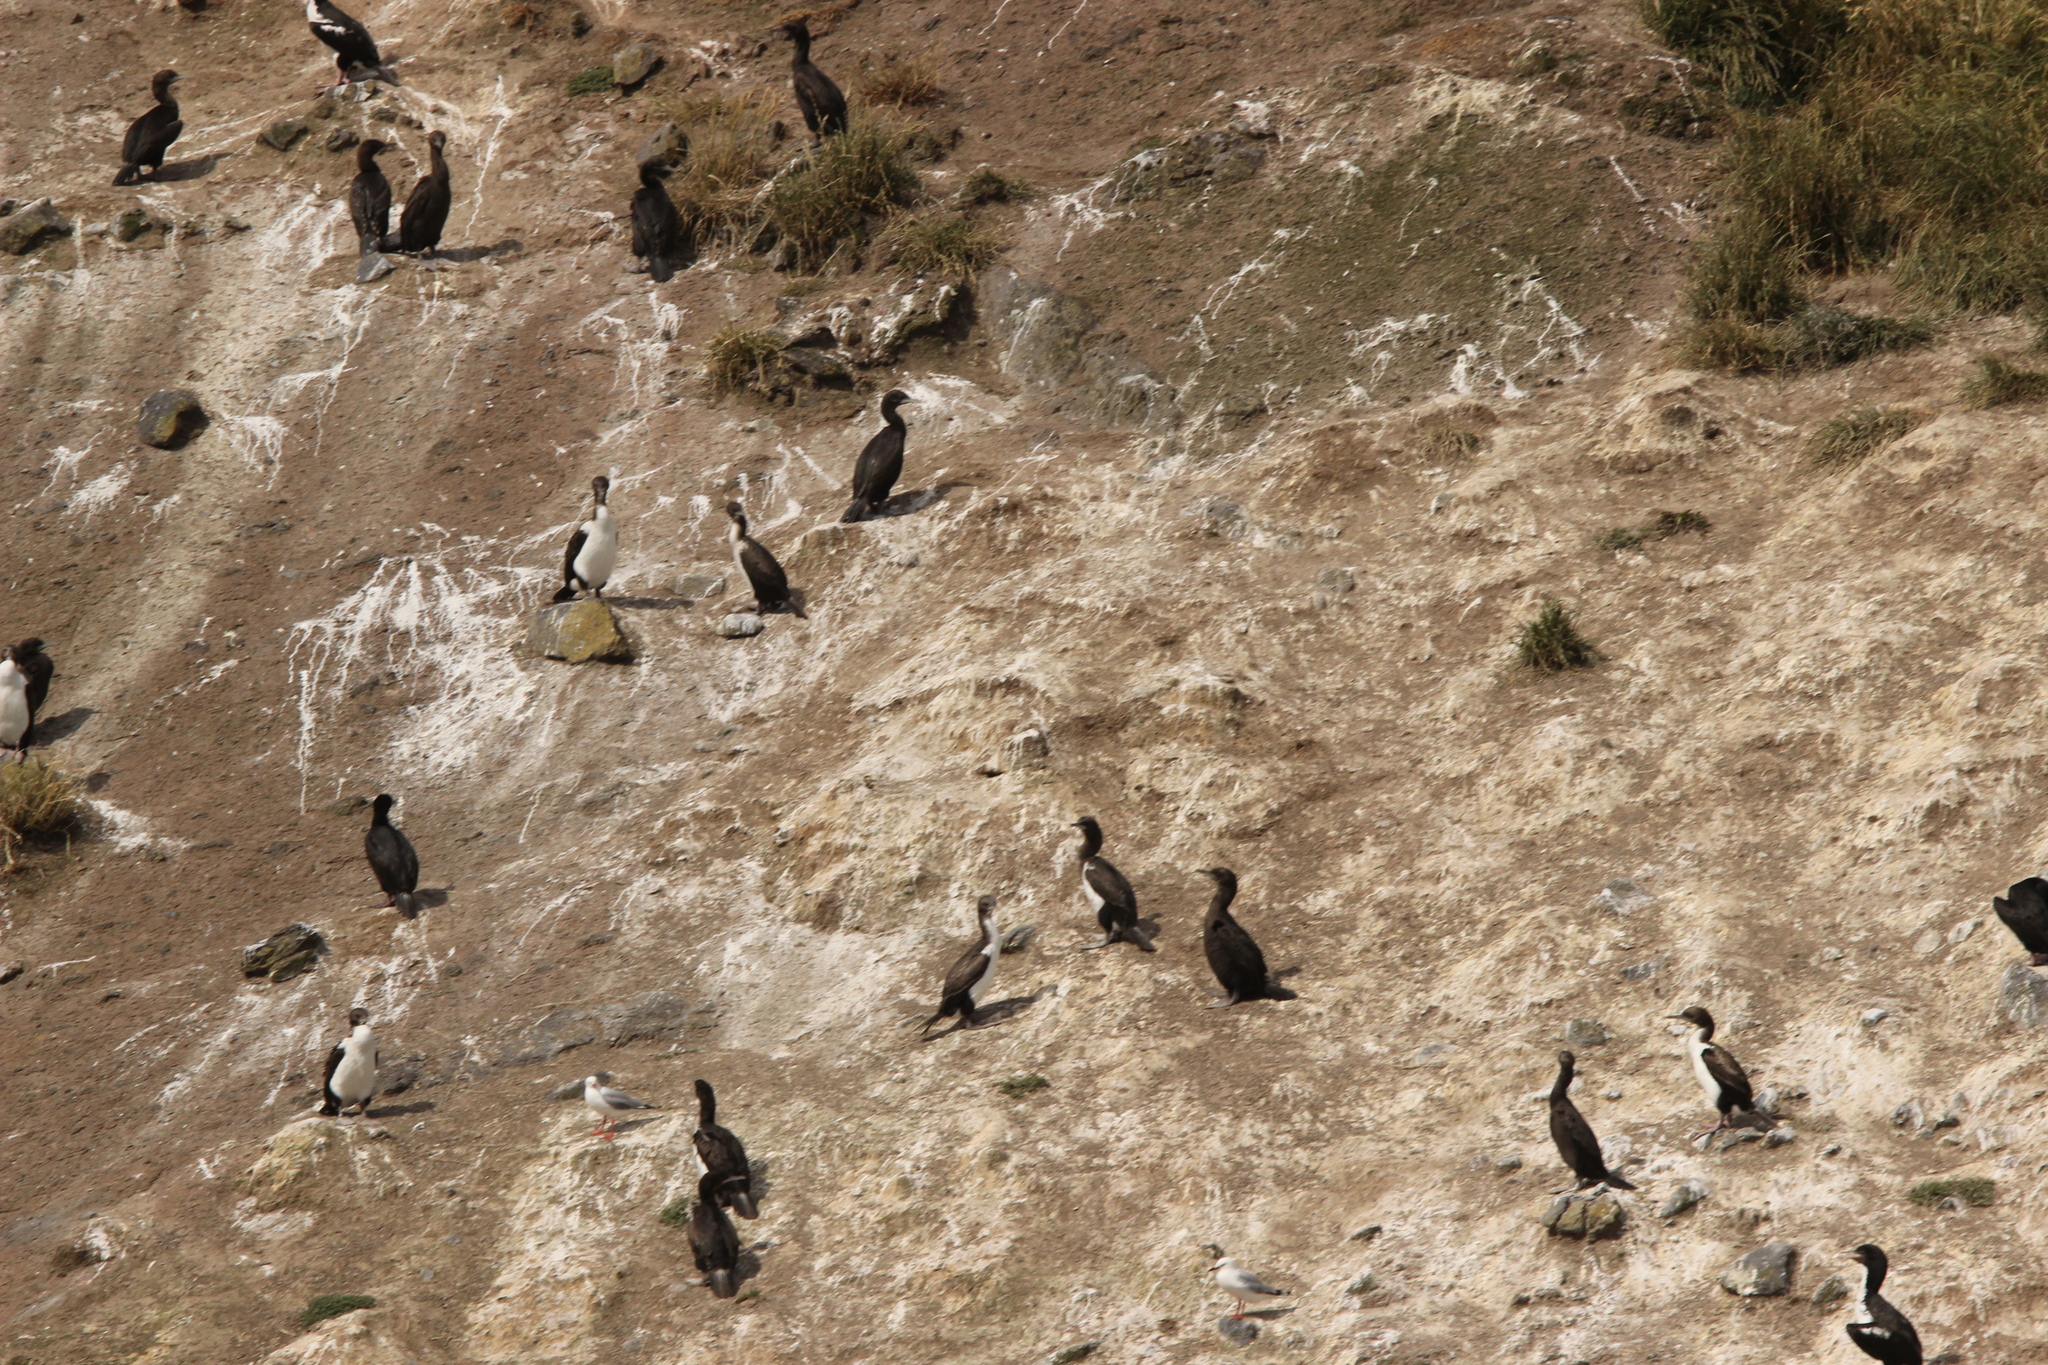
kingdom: Animalia
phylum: Chordata
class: Aves
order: Suliformes
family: Phalacrocoracidae
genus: Leucocarbo
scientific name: Leucocarbo chalconotus
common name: Stewart shag
